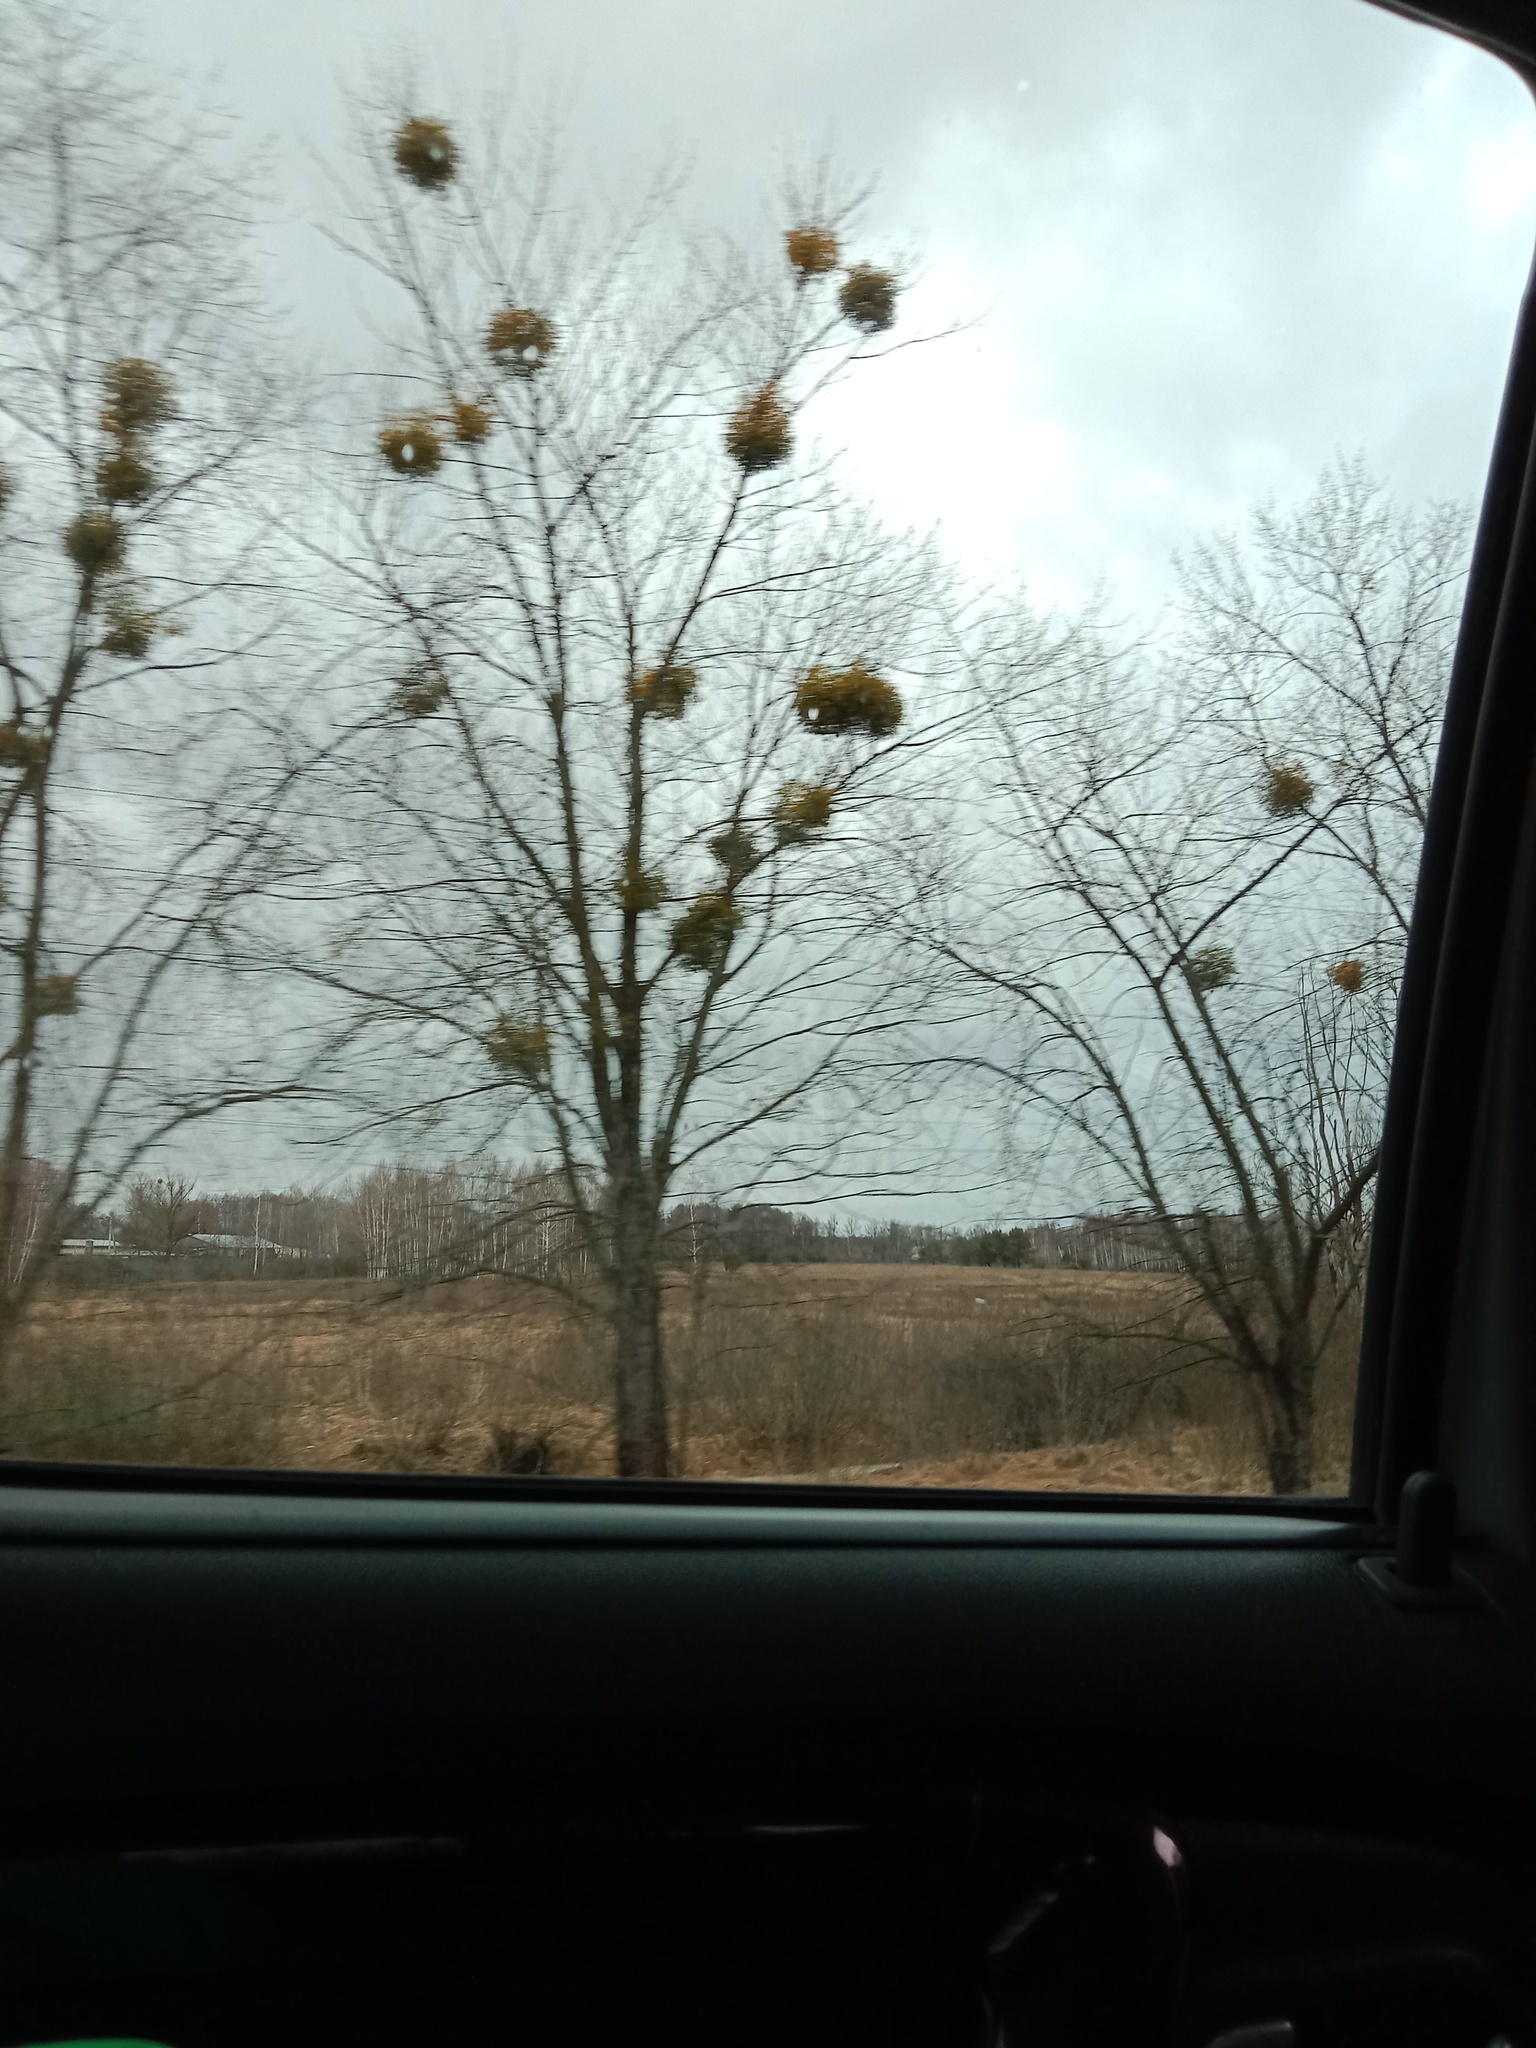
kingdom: Plantae
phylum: Tracheophyta
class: Magnoliopsida
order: Santalales
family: Viscaceae
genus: Viscum
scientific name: Viscum album
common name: Mistletoe
